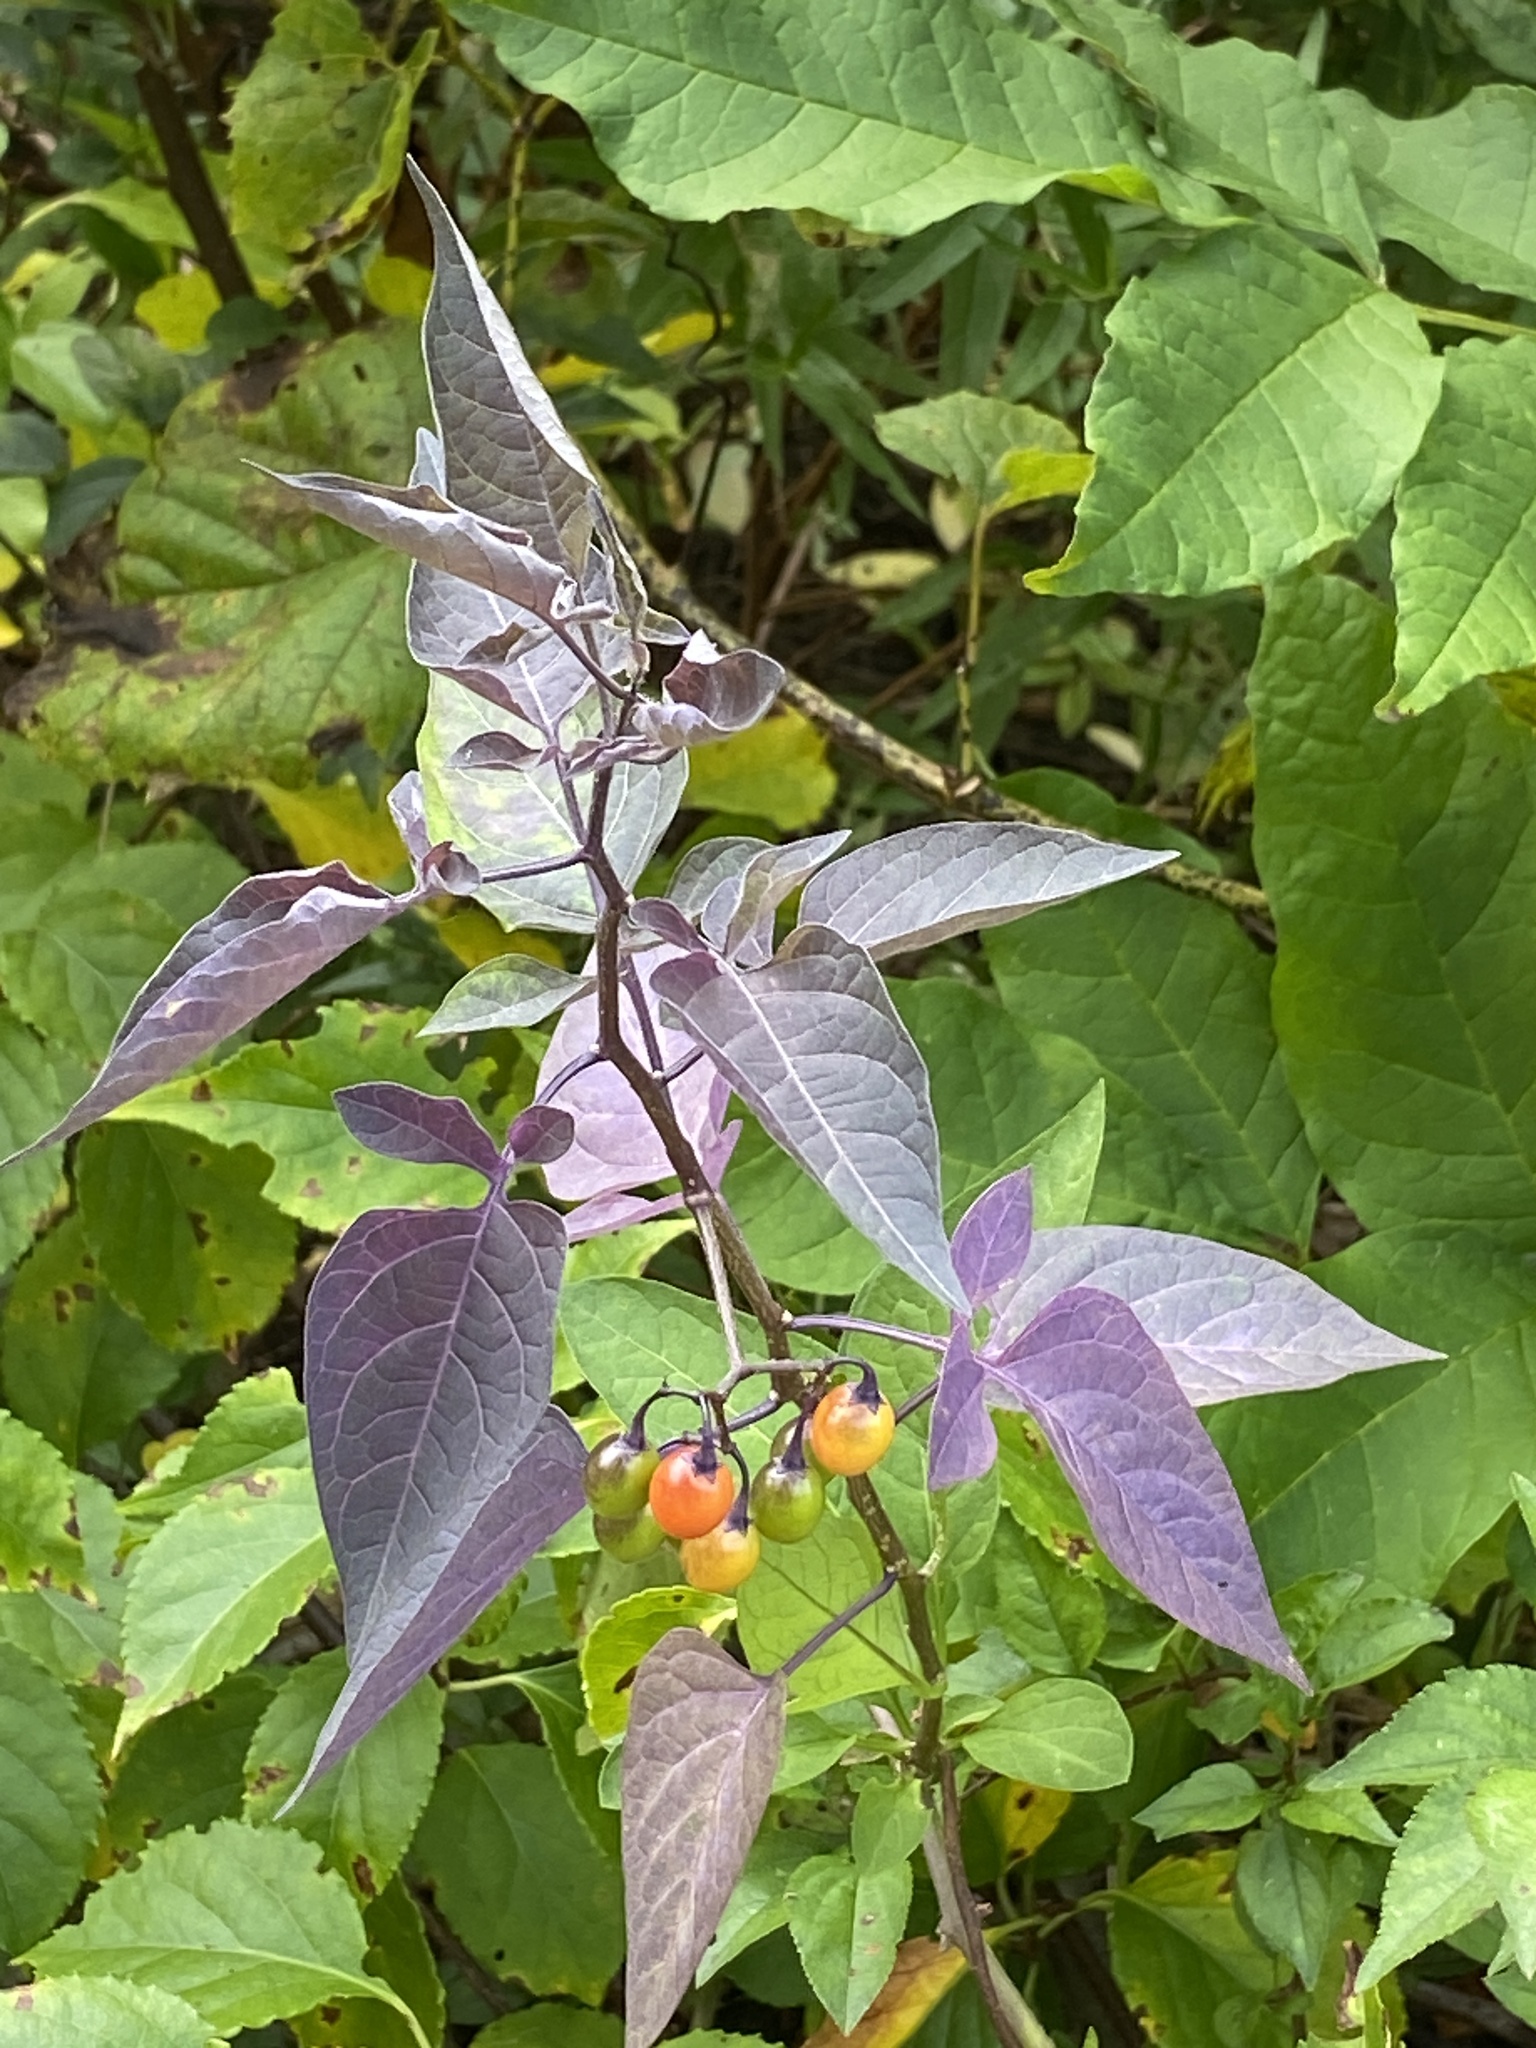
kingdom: Plantae
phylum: Tracheophyta
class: Magnoliopsida
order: Solanales
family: Solanaceae
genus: Solanum
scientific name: Solanum dulcamara
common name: Climbing nightshade
